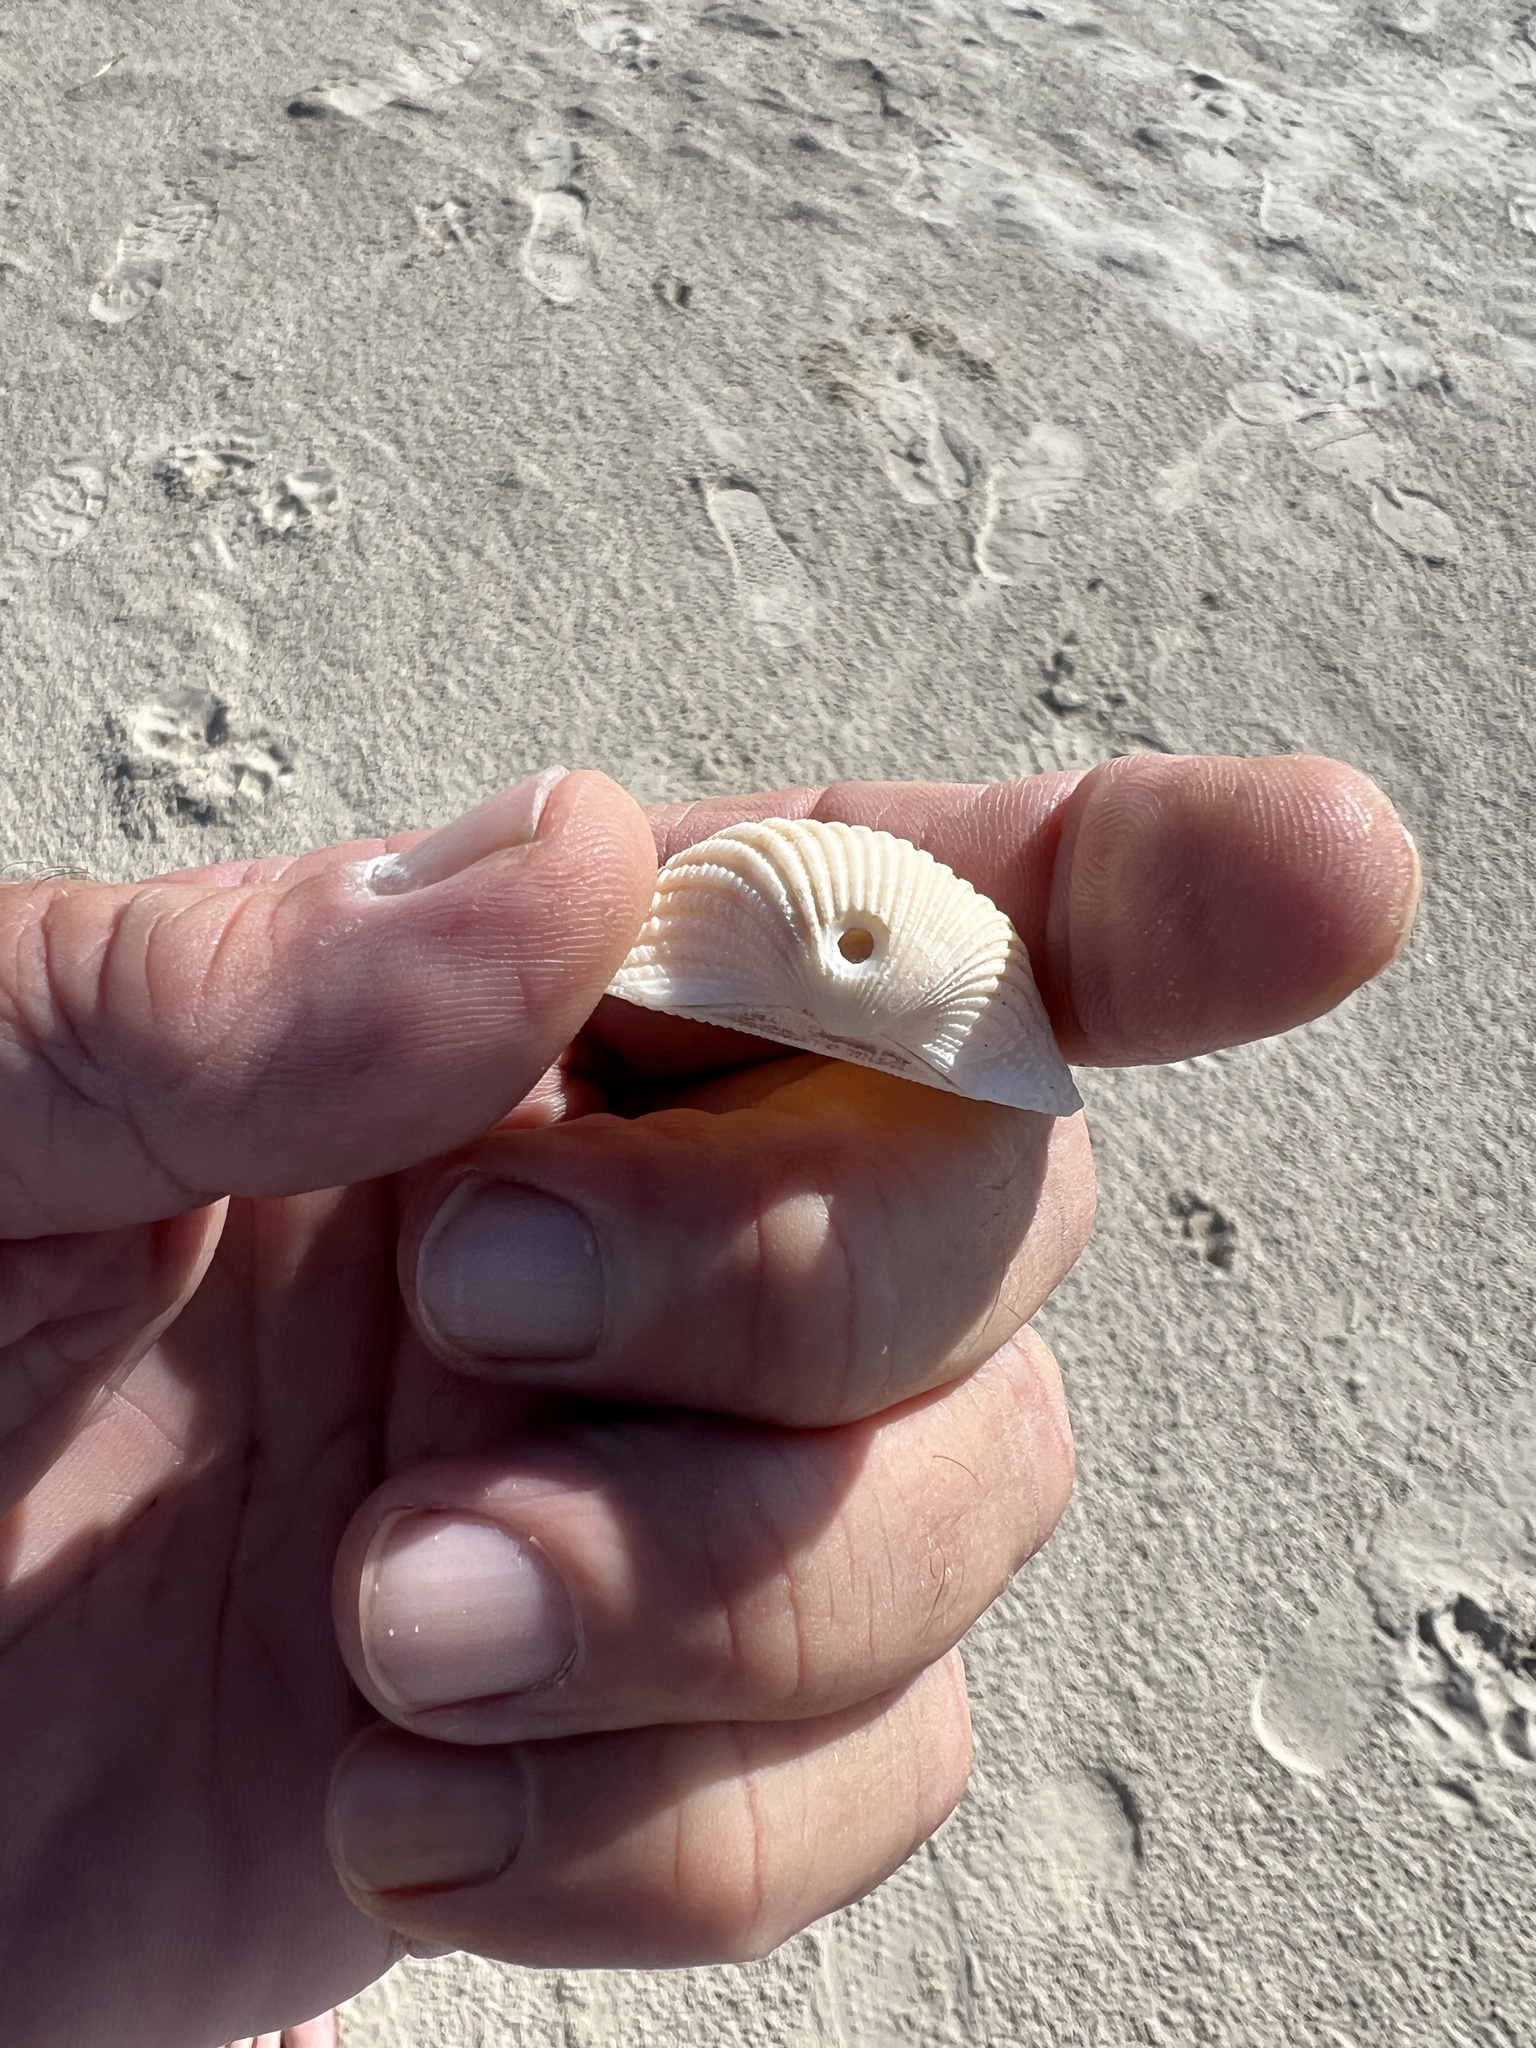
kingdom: Animalia
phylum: Mollusca
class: Bivalvia
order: Arcida
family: Arcidae
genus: Anadara
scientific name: Anadara brasiliana
